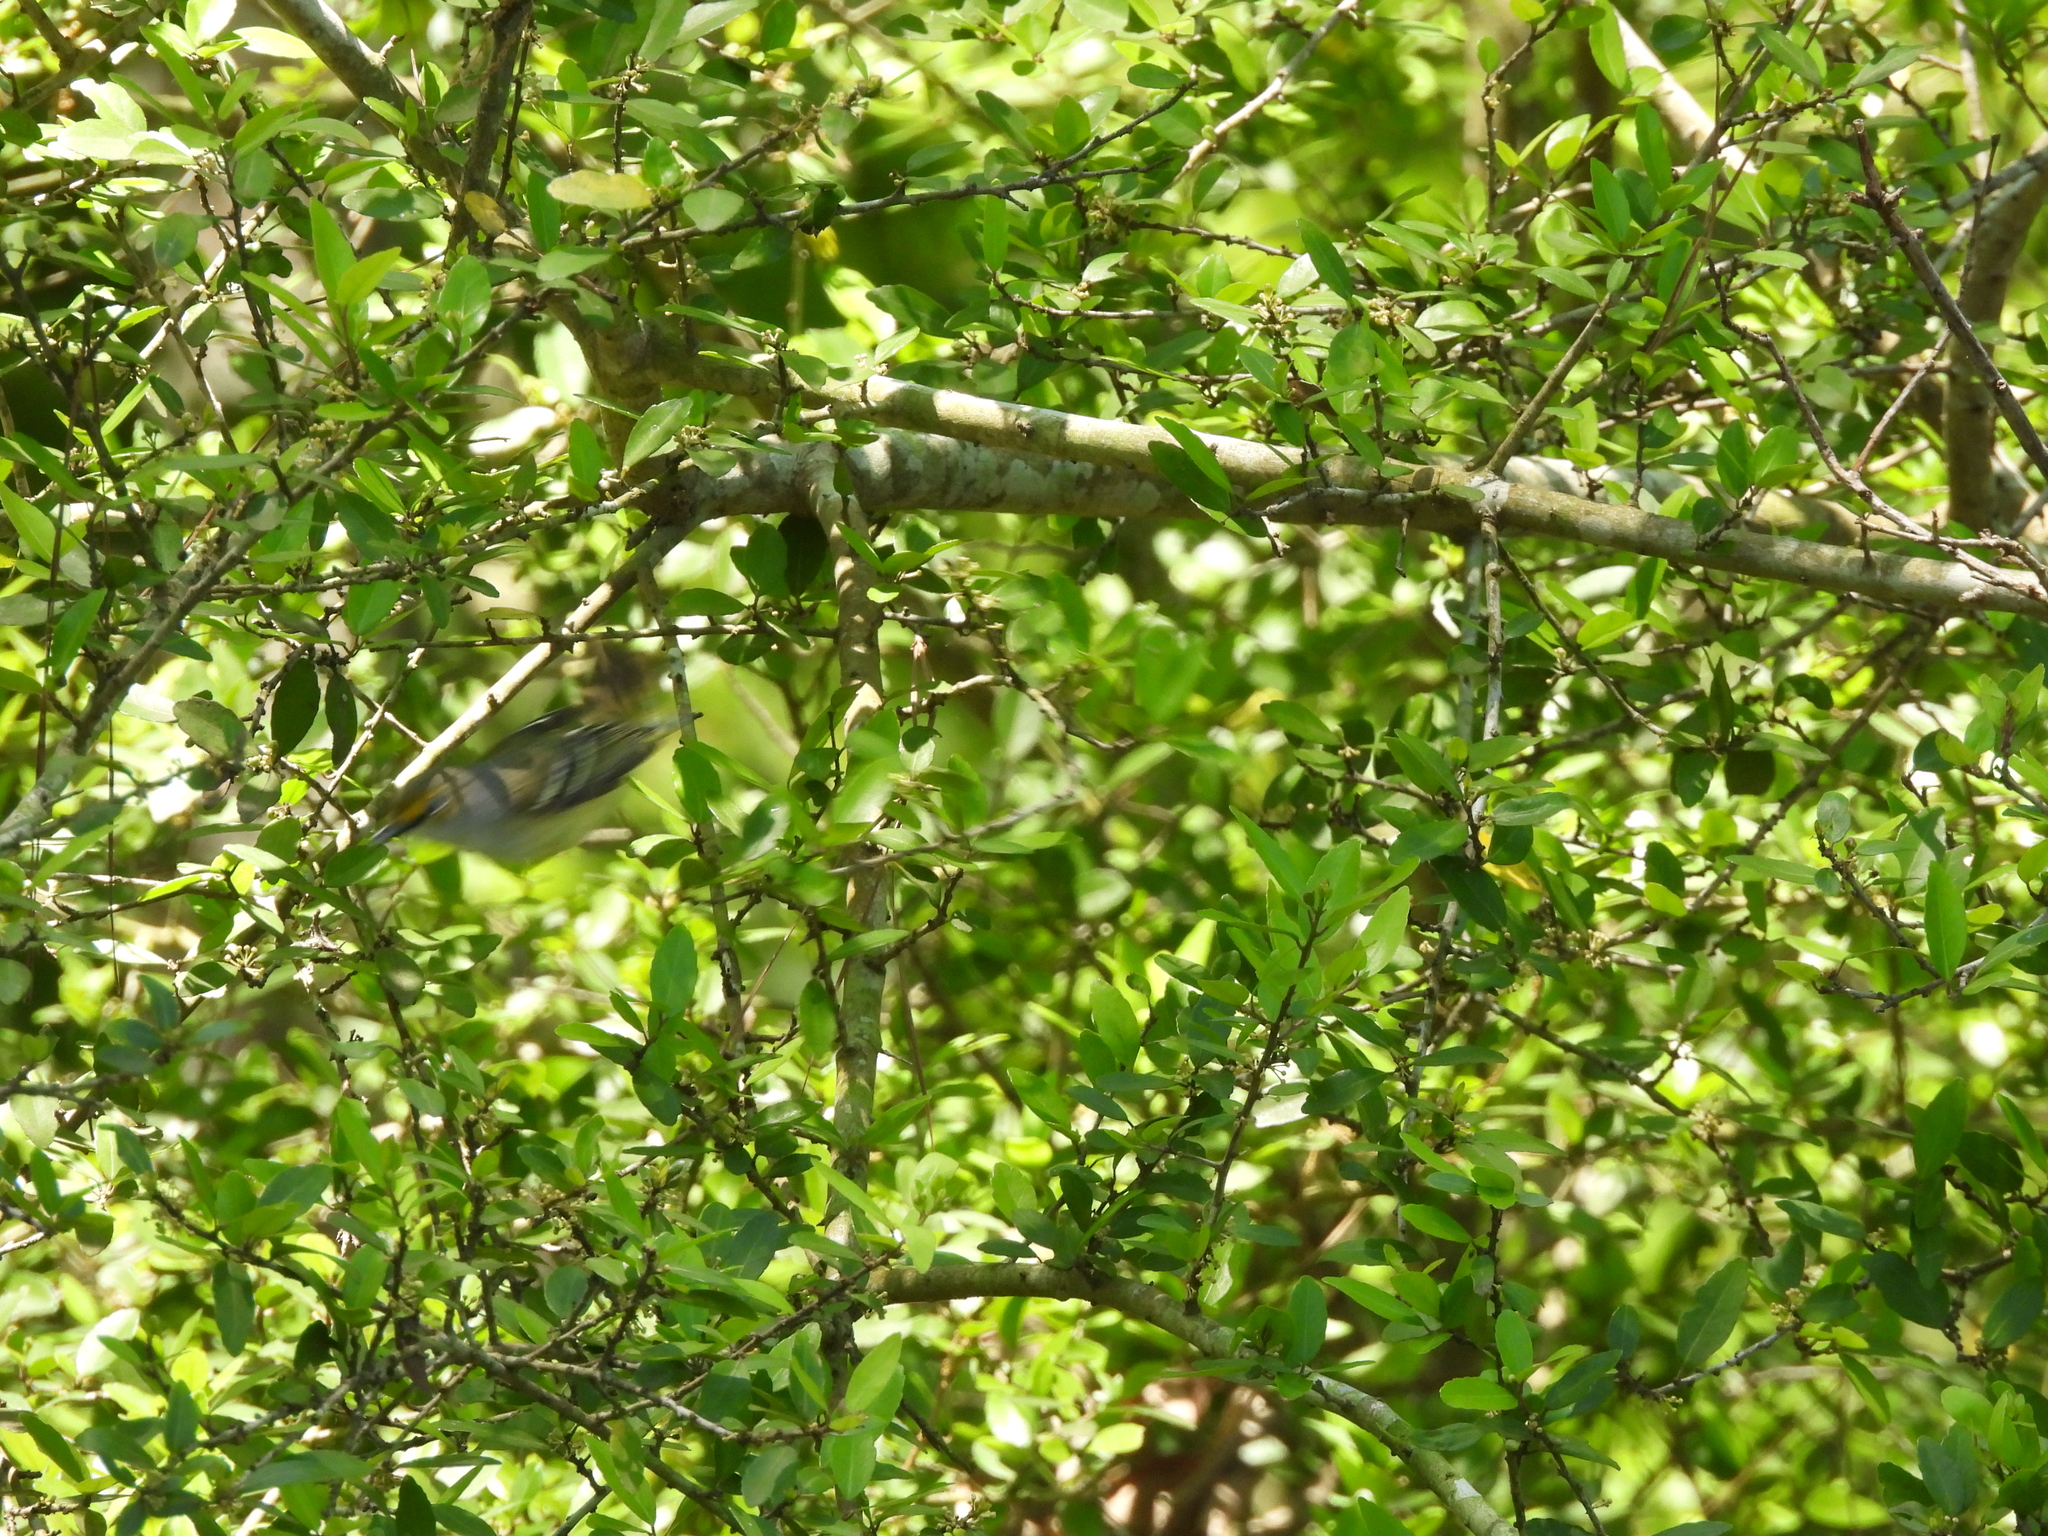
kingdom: Animalia
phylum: Chordata
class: Aves
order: Passeriformes
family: Vireonidae
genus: Vireo
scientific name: Vireo griseus
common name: White-eyed vireo
